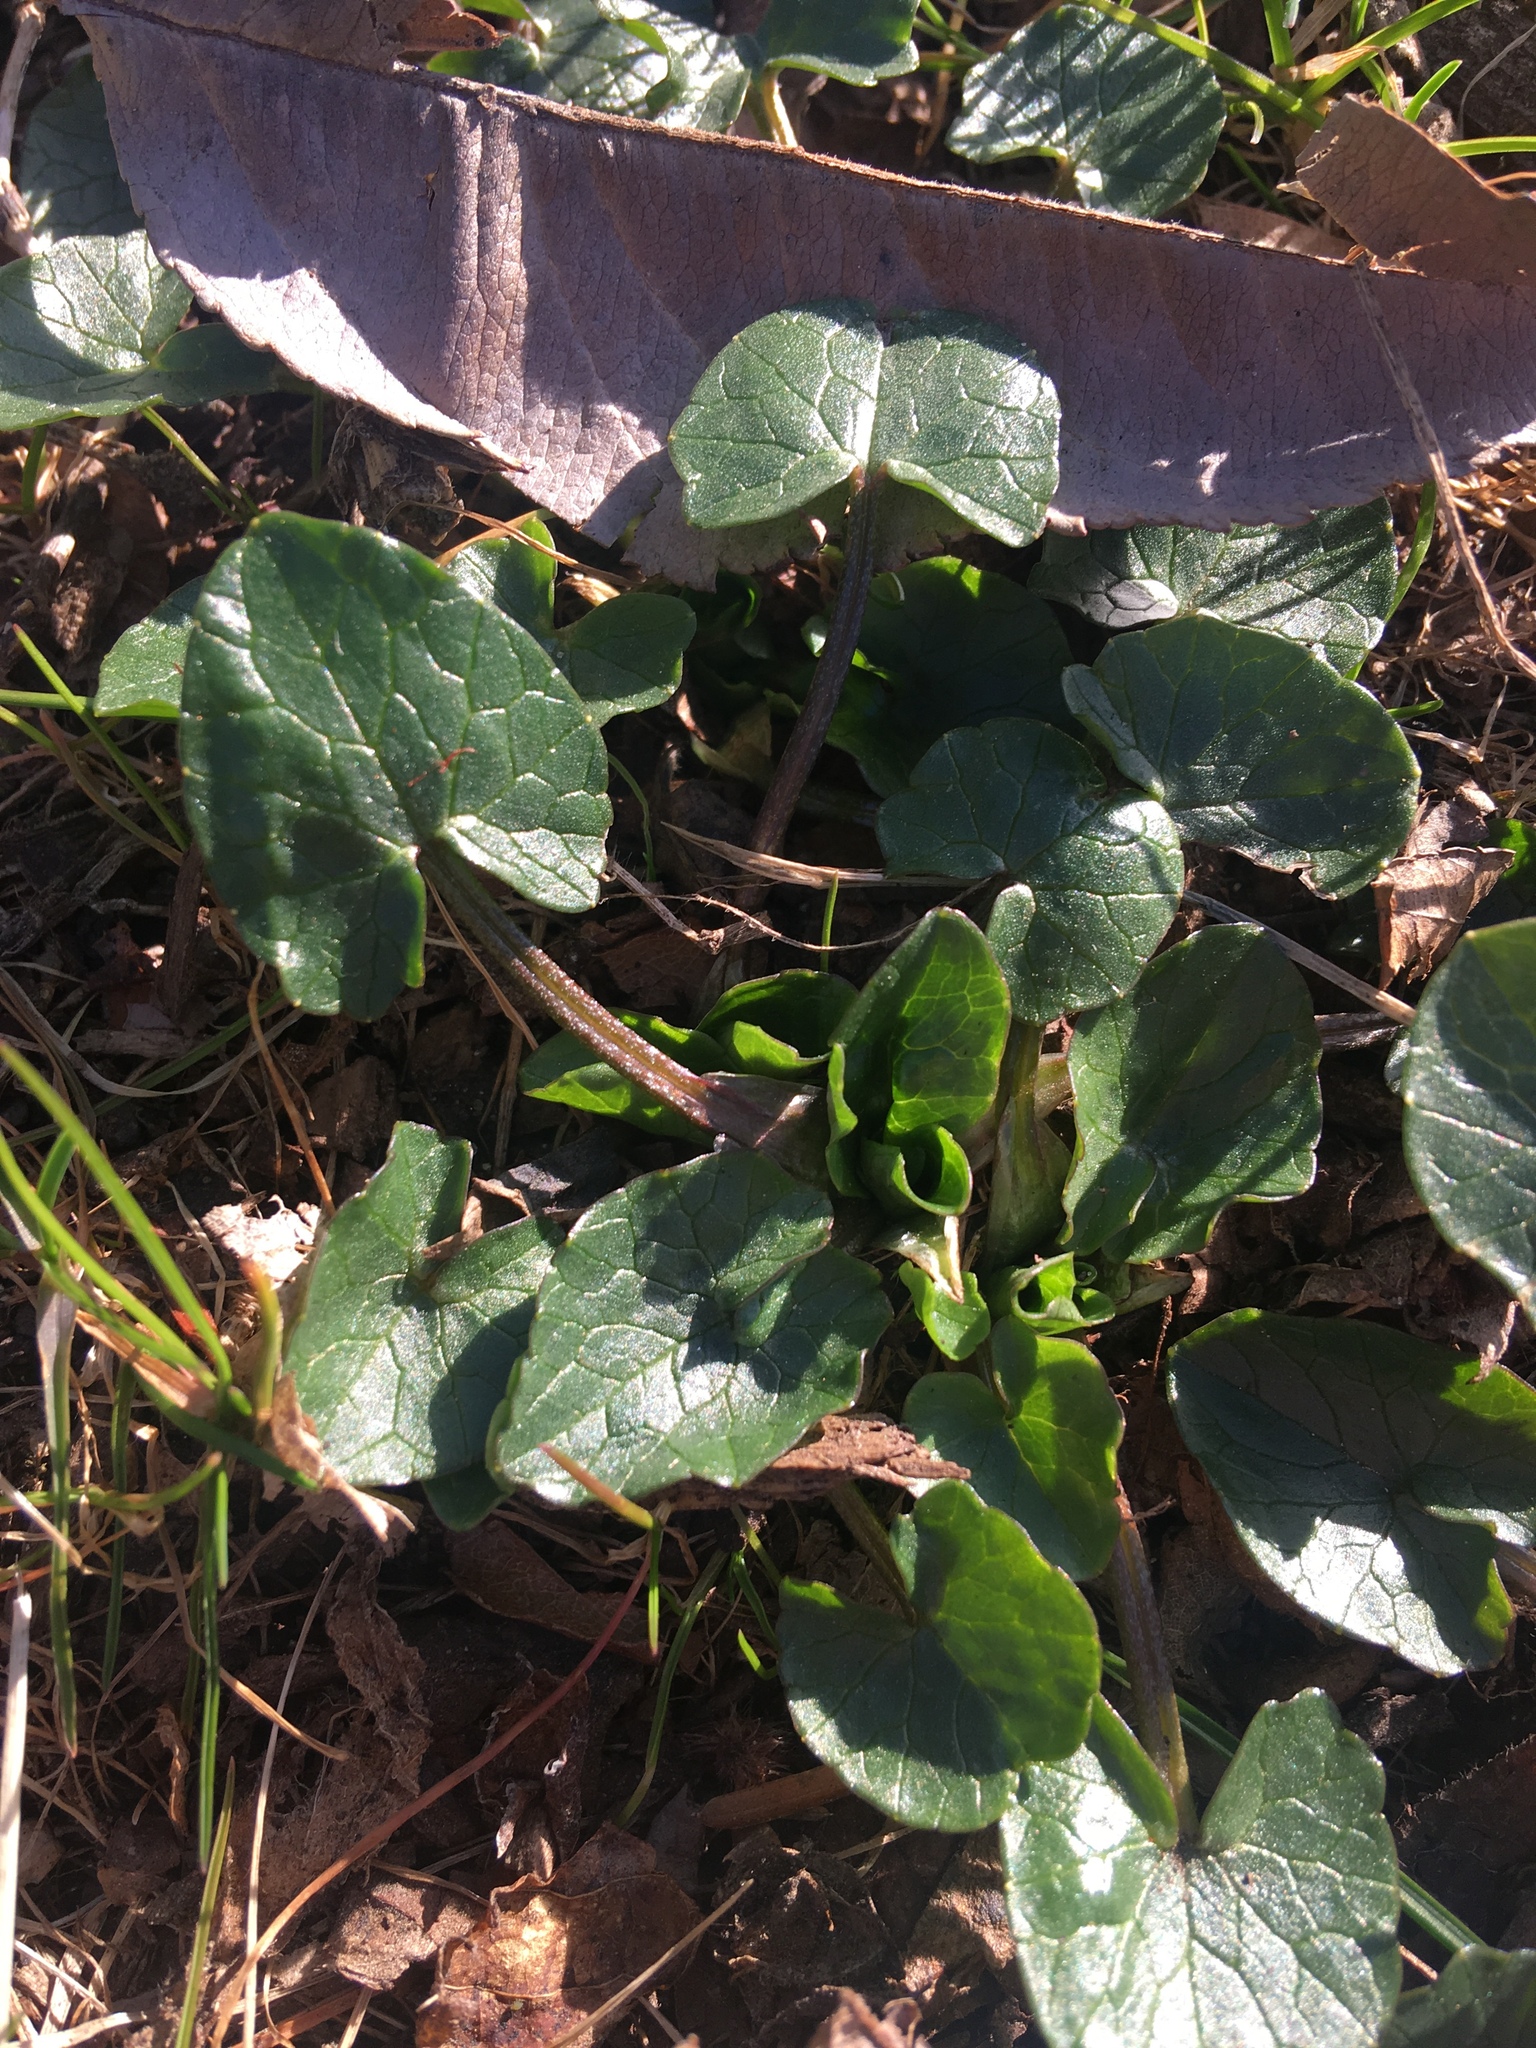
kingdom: Plantae
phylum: Tracheophyta
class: Magnoliopsida
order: Ranunculales
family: Ranunculaceae
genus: Ficaria
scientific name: Ficaria verna
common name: Lesser celandine
